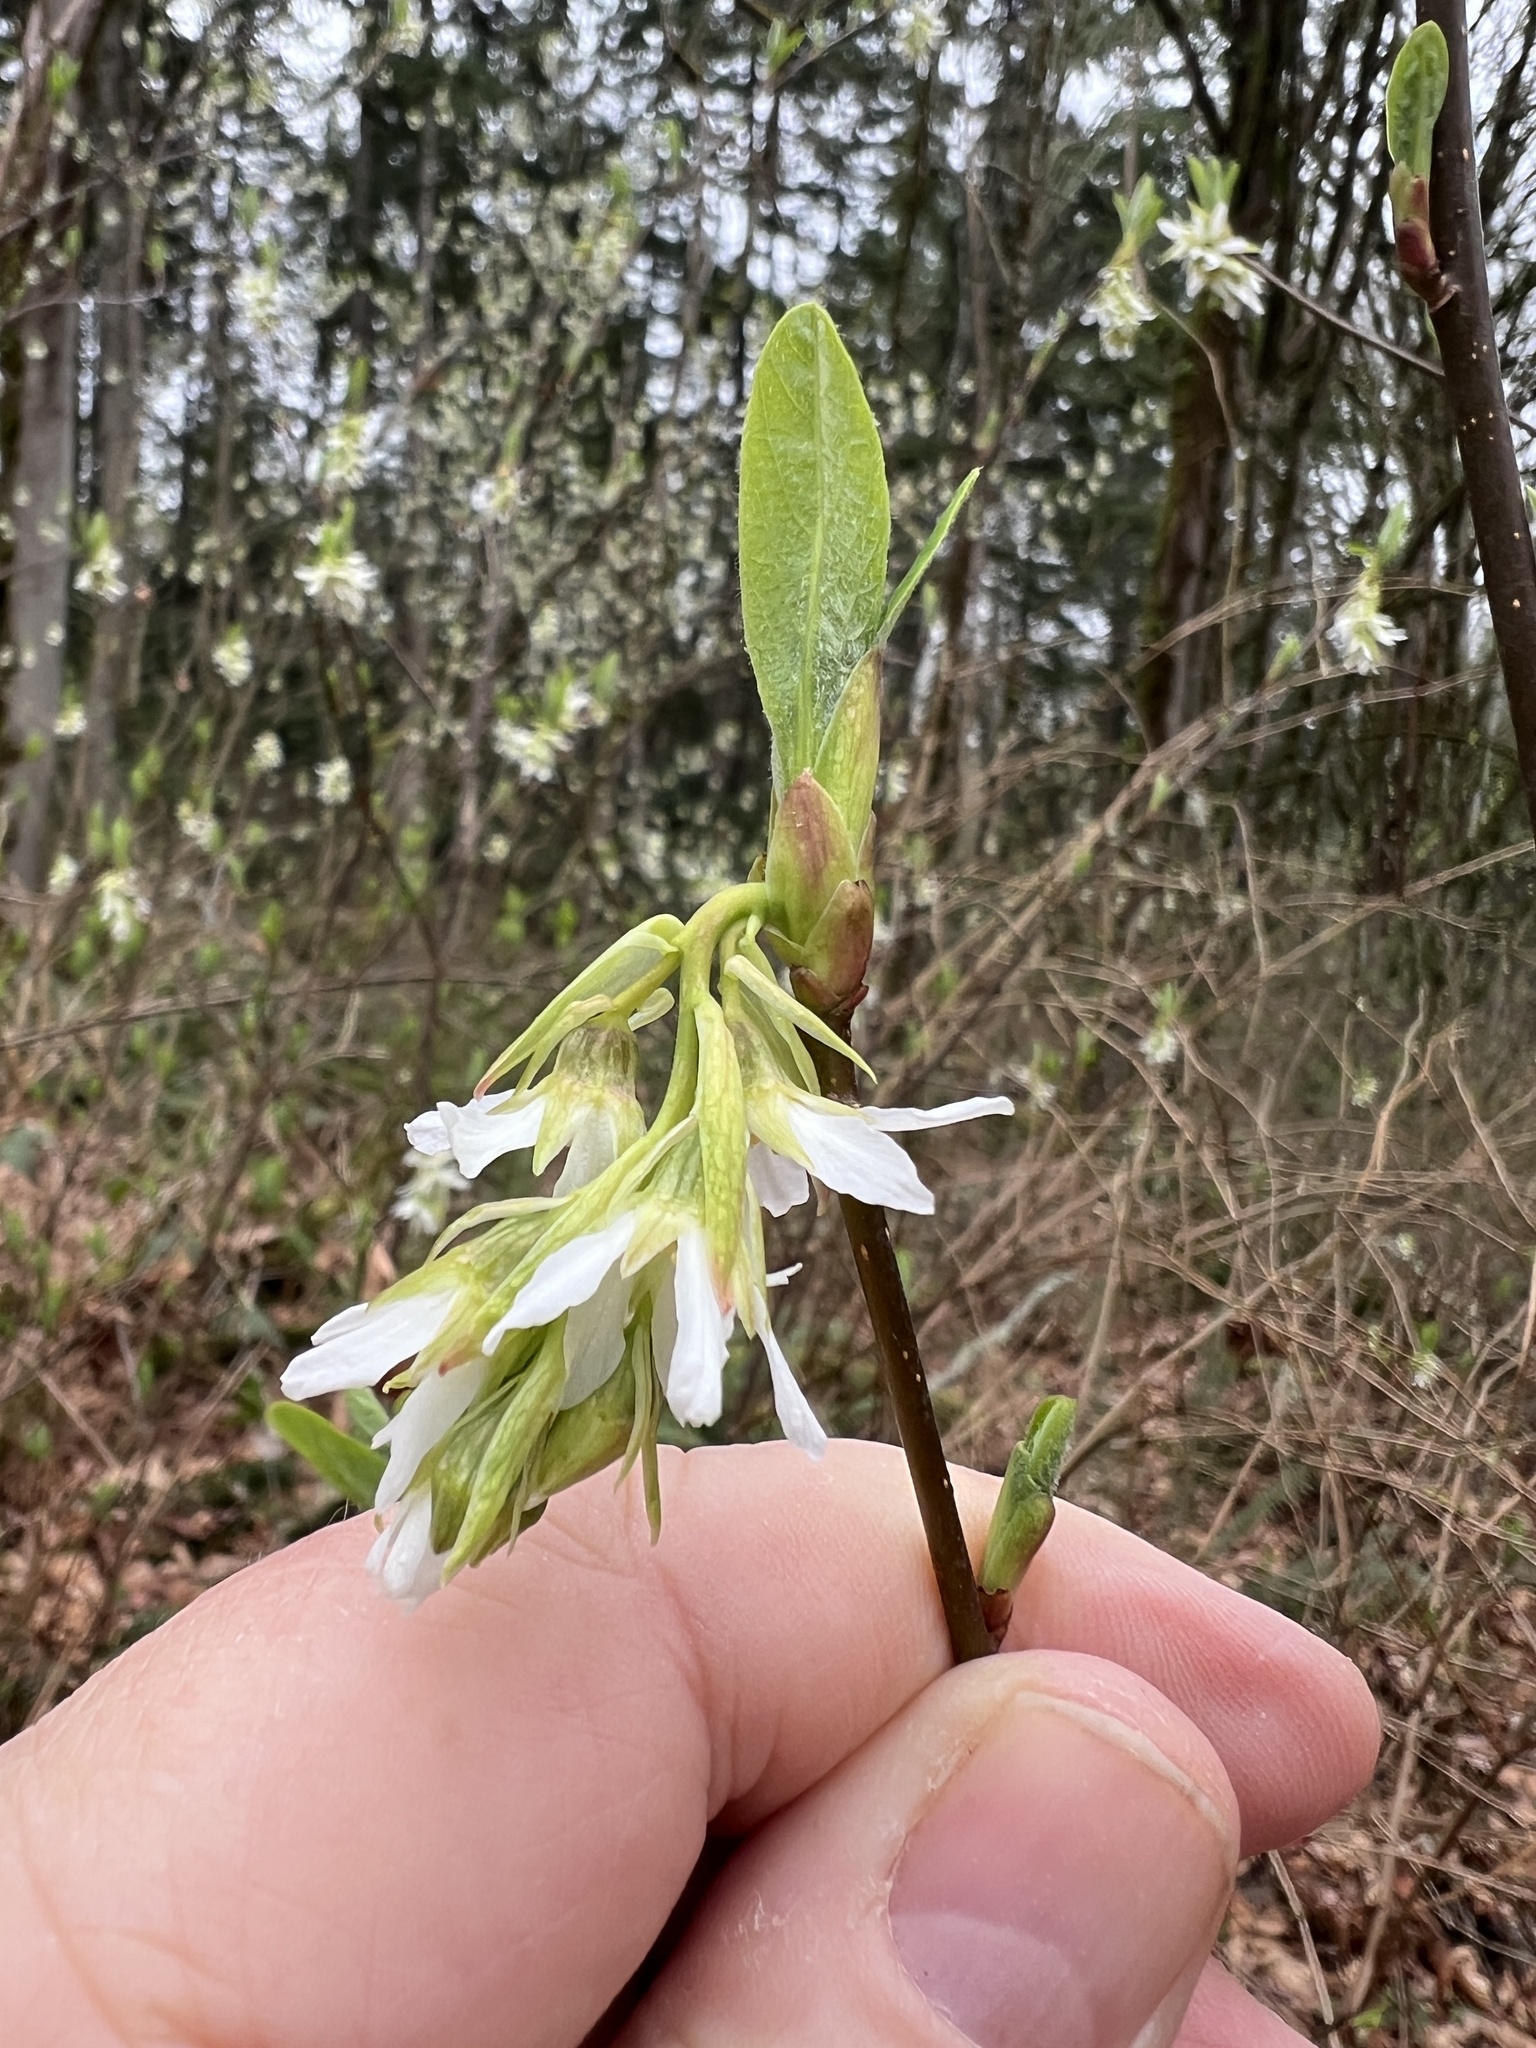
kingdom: Plantae
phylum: Tracheophyta
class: Magnoliopsida
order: Rosales
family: Rosaceae
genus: Oemleria
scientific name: Oemleria cerasiformis
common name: Osoberry
